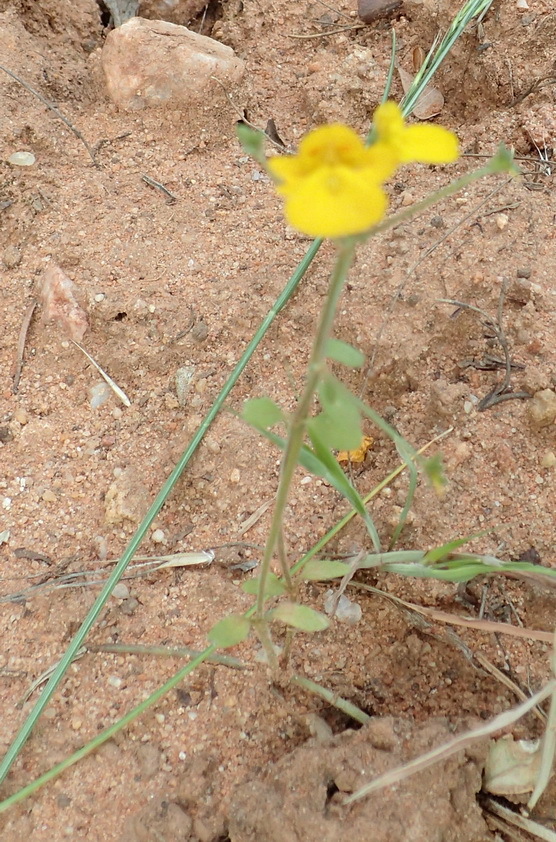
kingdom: Plantae
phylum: Tracheophyta
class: Magnoliopsida
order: Lamiales
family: Scrophulariaceae
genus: Hemimeris
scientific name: Hemimeris racemosa
